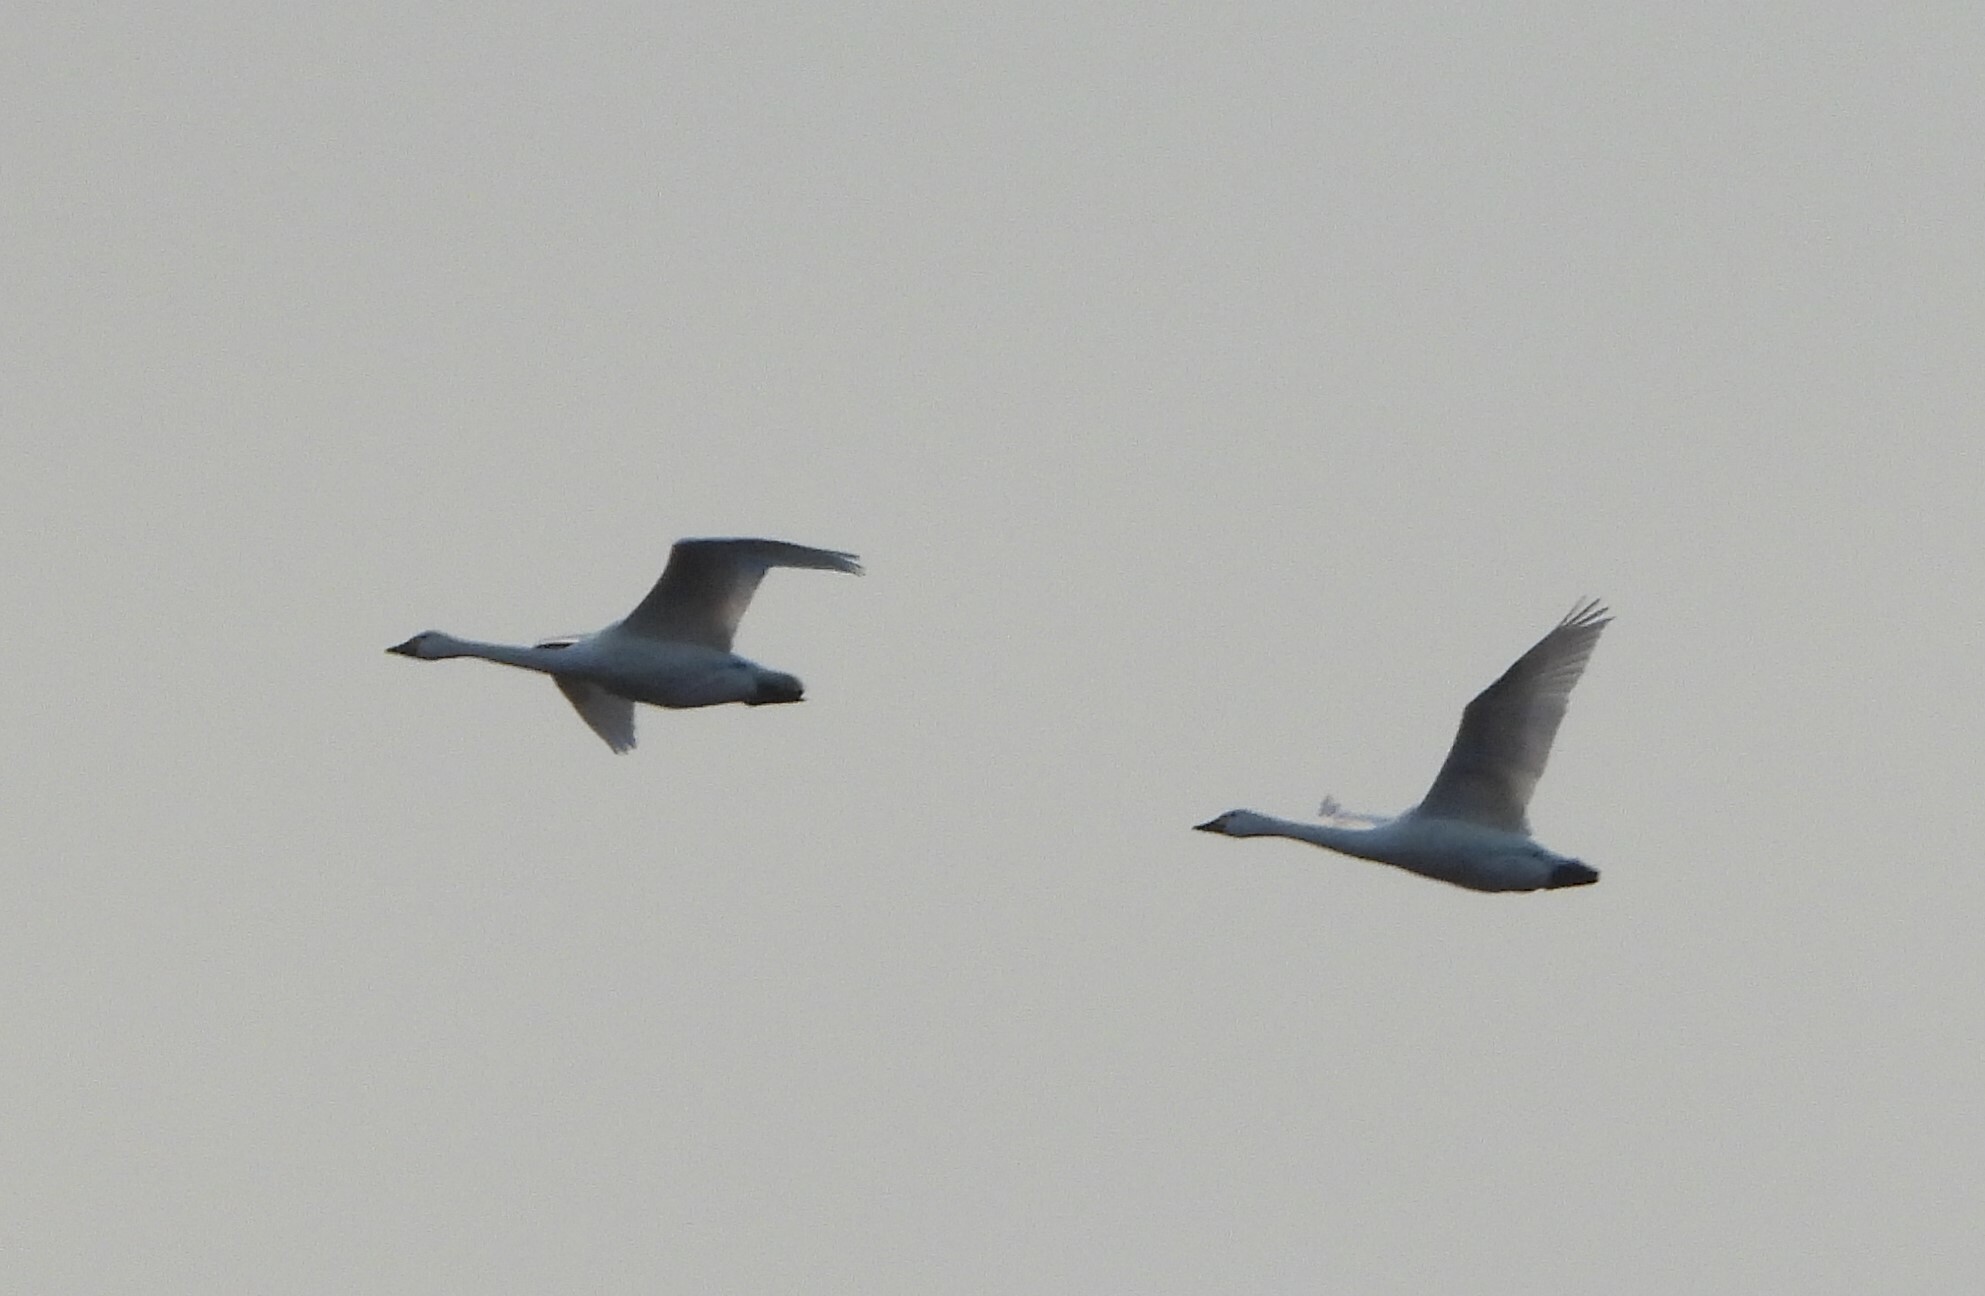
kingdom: Animalia
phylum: Chordata
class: Aves
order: Anseriformes
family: Anatidae
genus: Cygnus
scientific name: Cygnus cygnus
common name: Whooper swan
